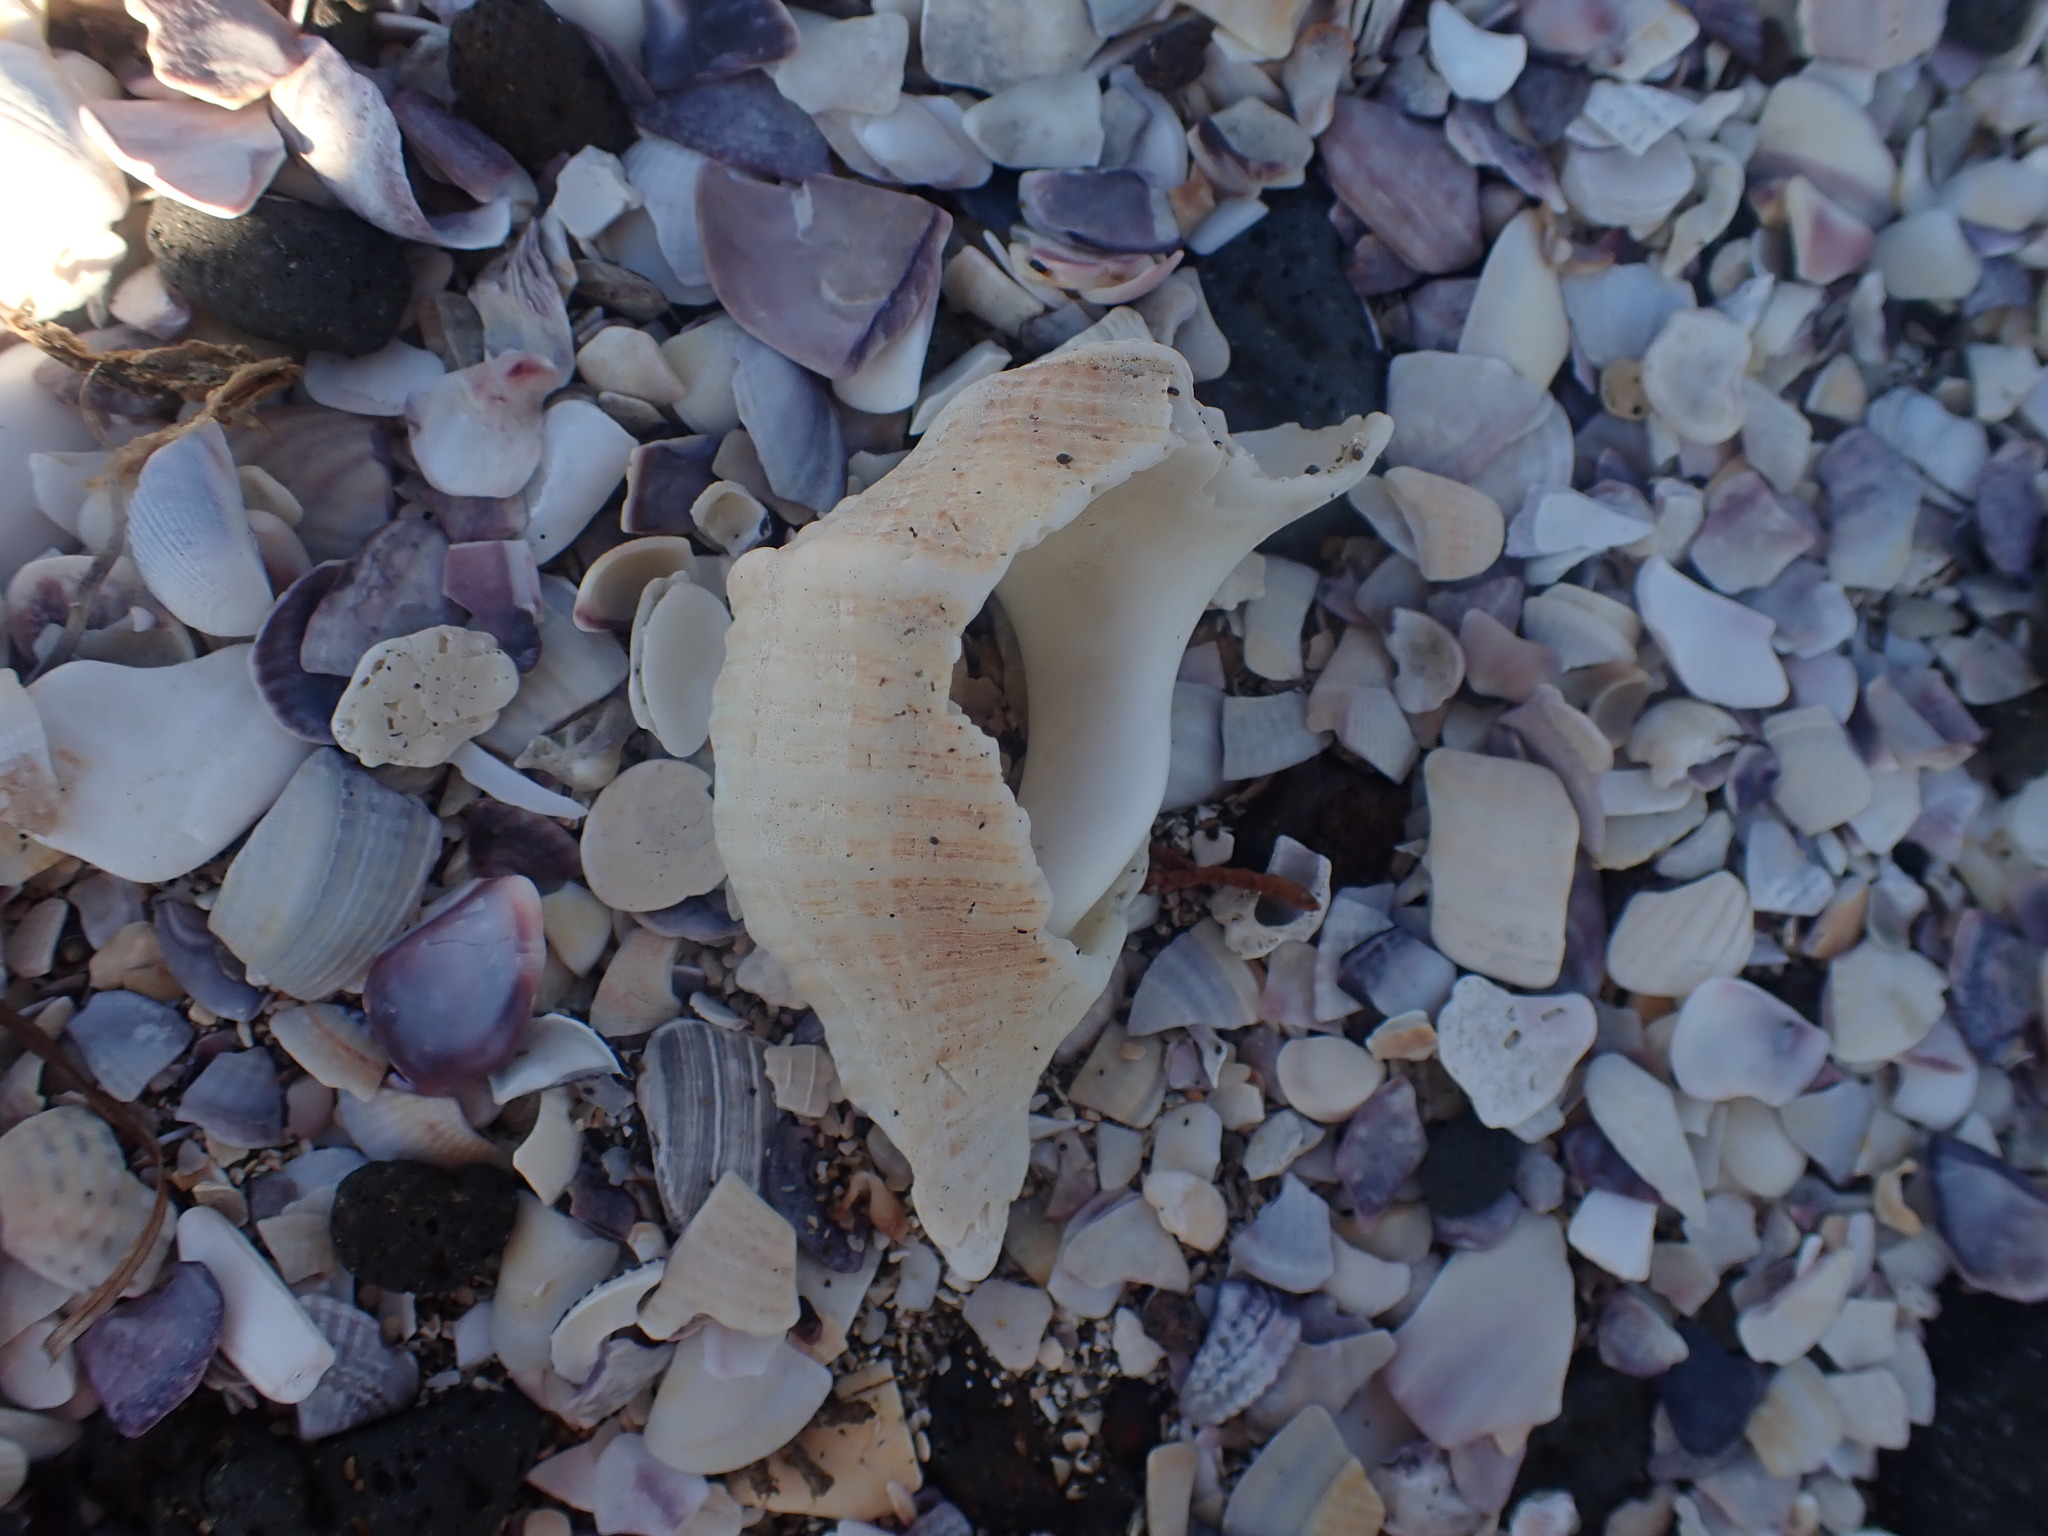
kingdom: Animalia
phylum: Mollusca
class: Gastropoda
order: Neogastropoda
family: Austrosiphonidae
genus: Penion
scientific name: Penion sulcatus
